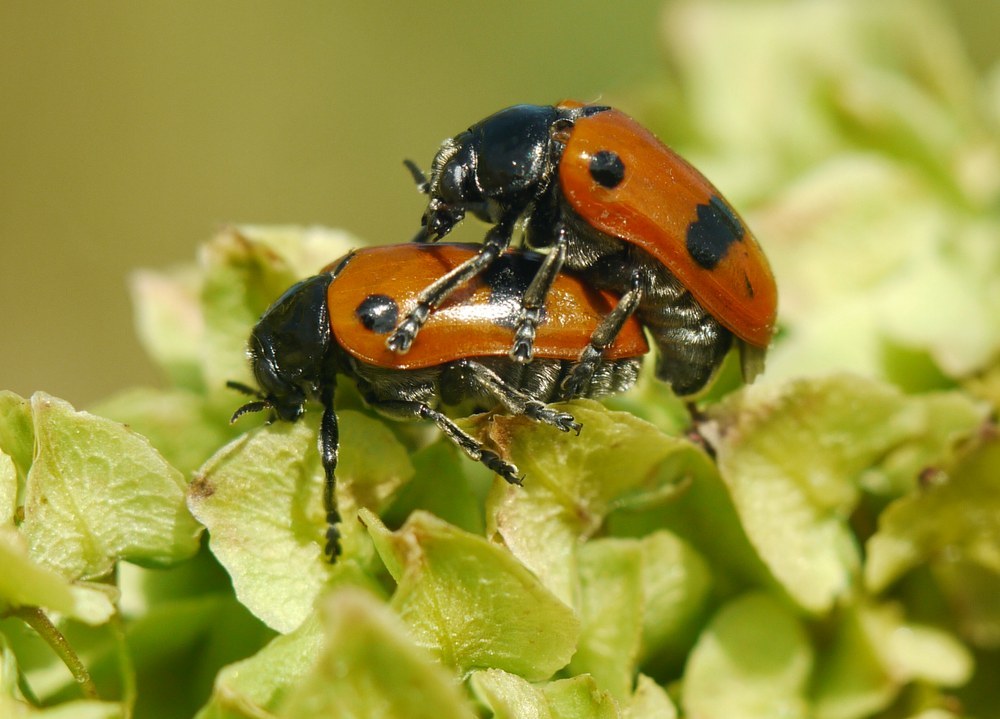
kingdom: Animalia
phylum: Arthropoda
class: Insecta
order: Coleoptera
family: Chrysomelidae
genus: Clytra
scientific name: Clytra laeviuscula
